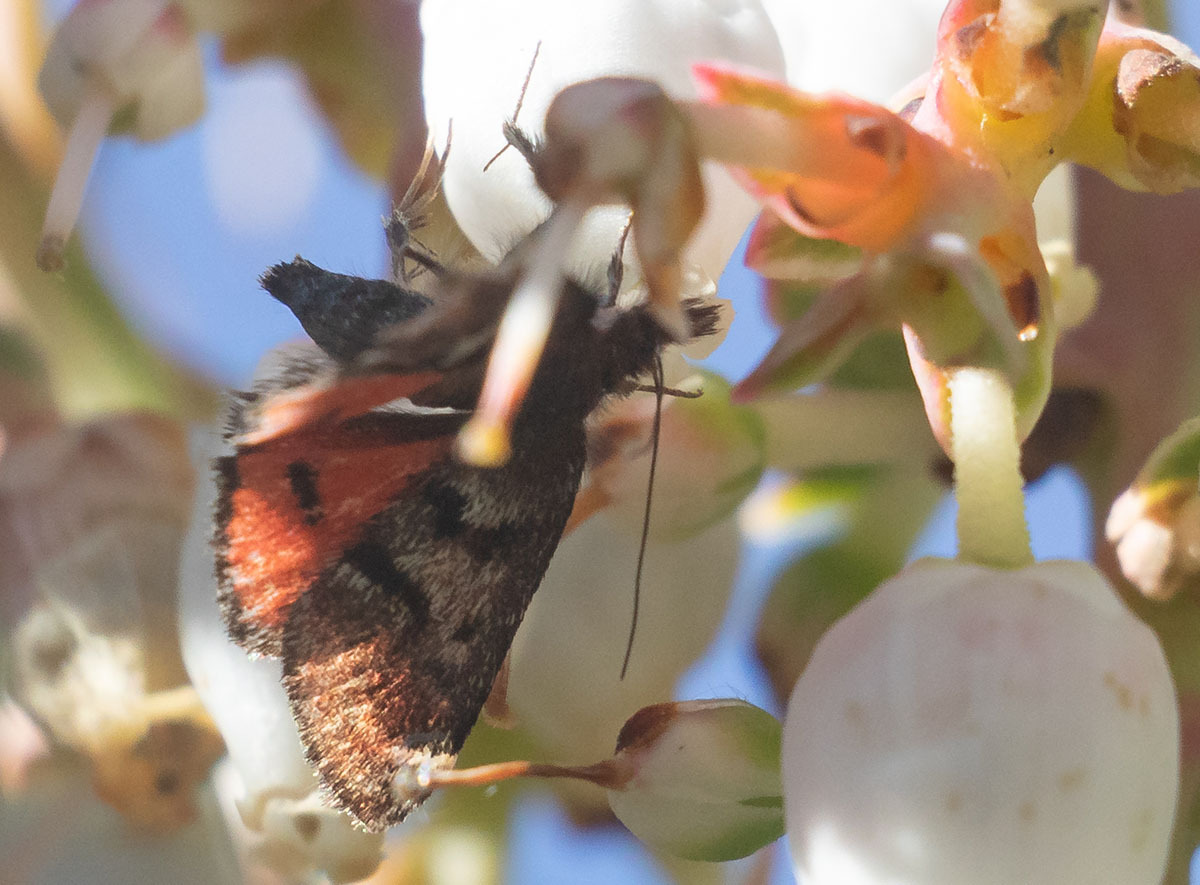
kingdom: Animalia
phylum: Arthropoda
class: Insecta
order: Lepidoptera
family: Crambidae
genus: Pyrausta
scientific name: Pyrausta dapalis
